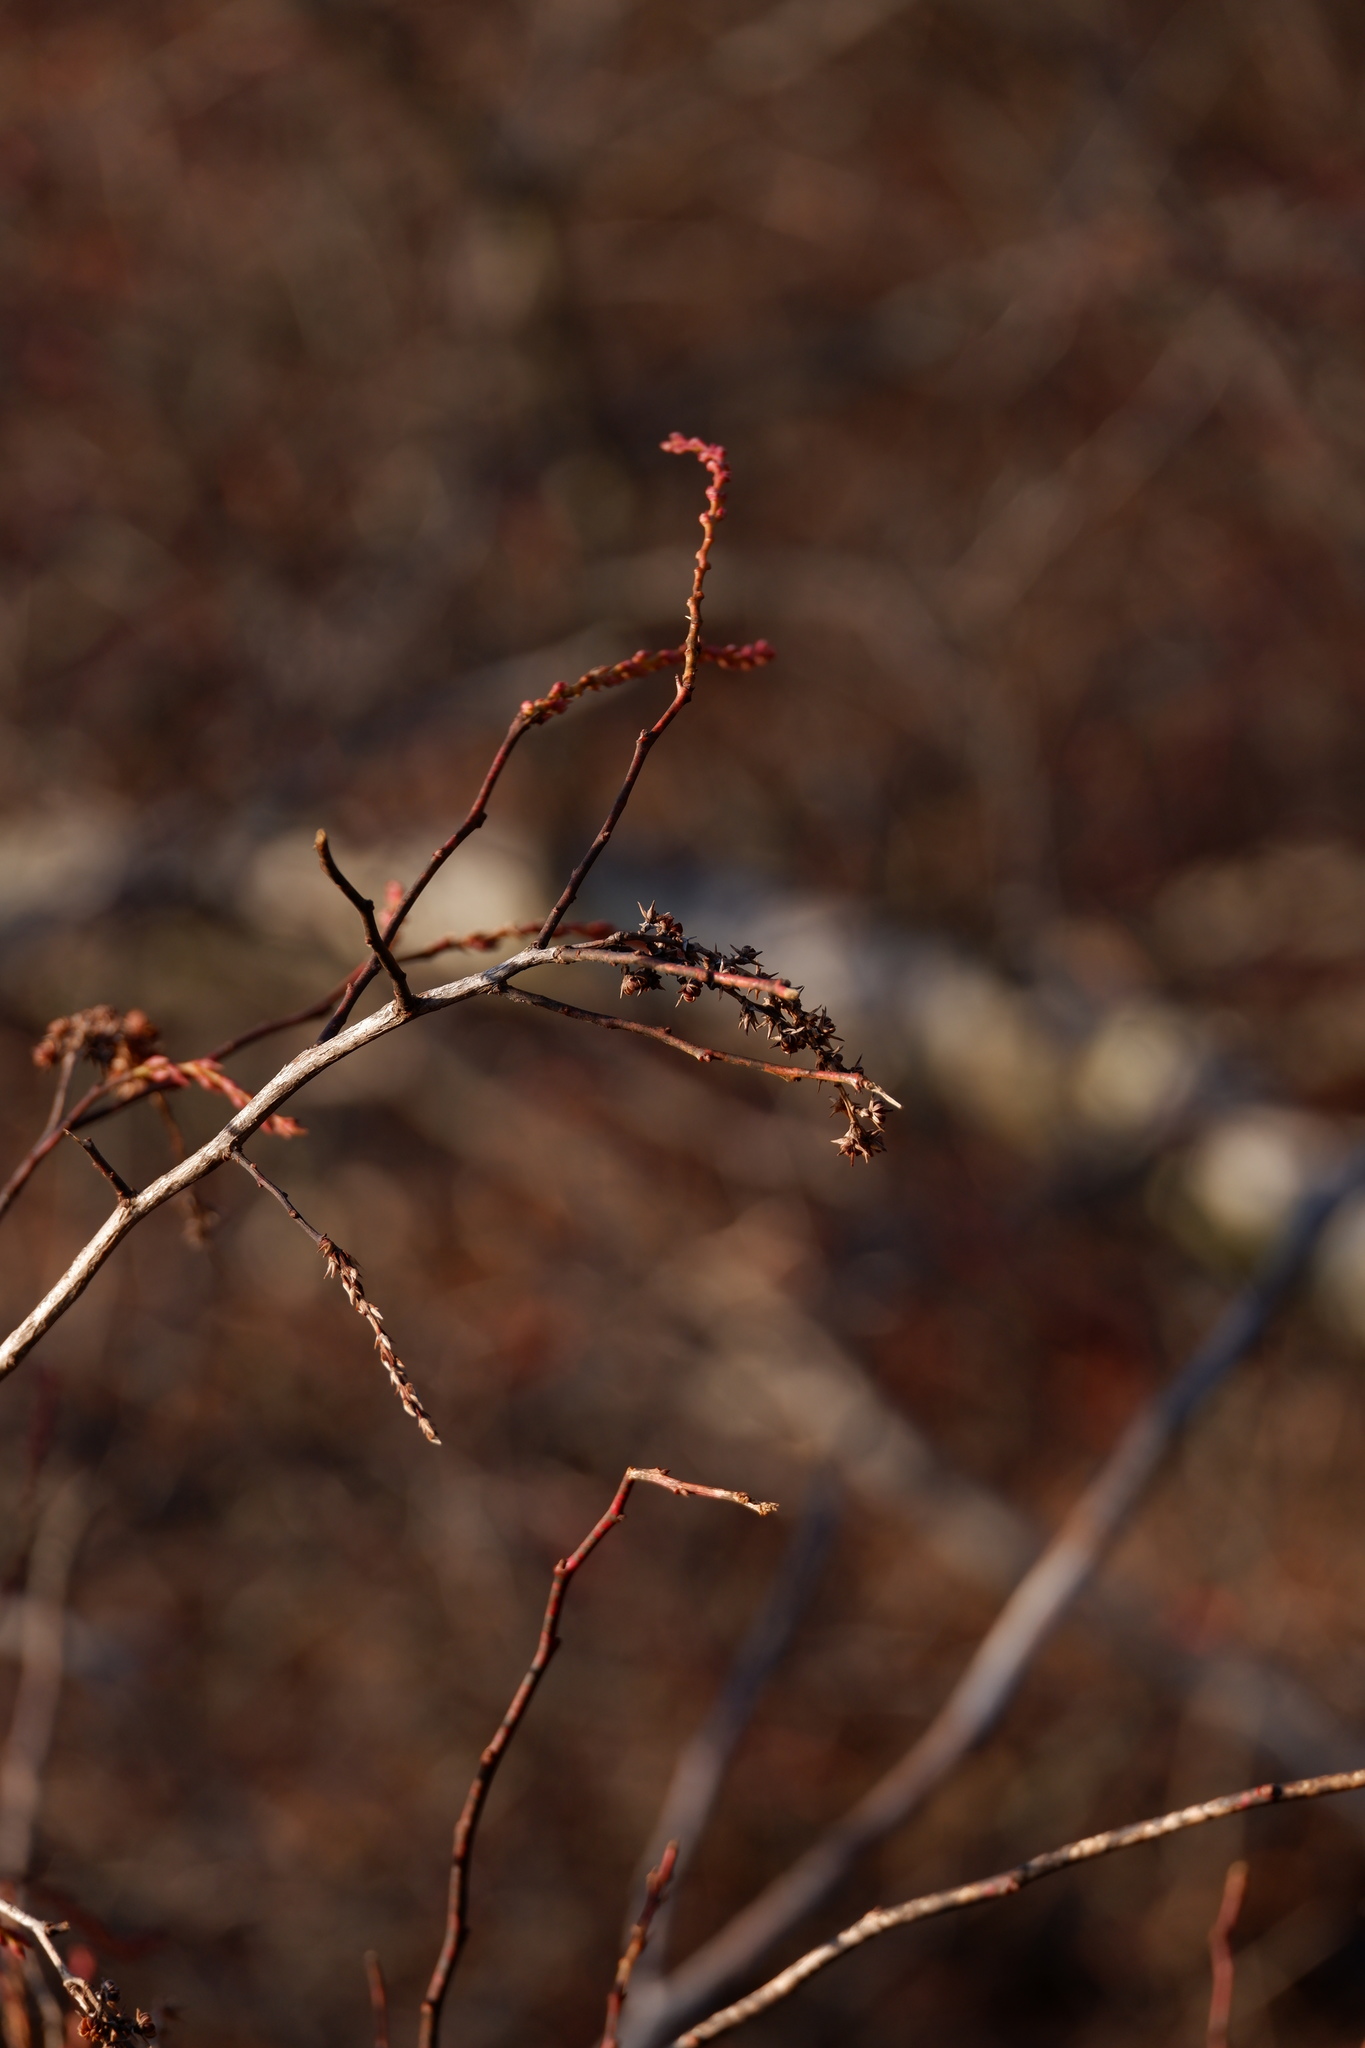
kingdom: Plantae
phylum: Tracheophyta
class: Magnoliopsida
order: Ericales
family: Ericaceae
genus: Eubotrys
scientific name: Eubotrys racemosa
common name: Fetterbush
